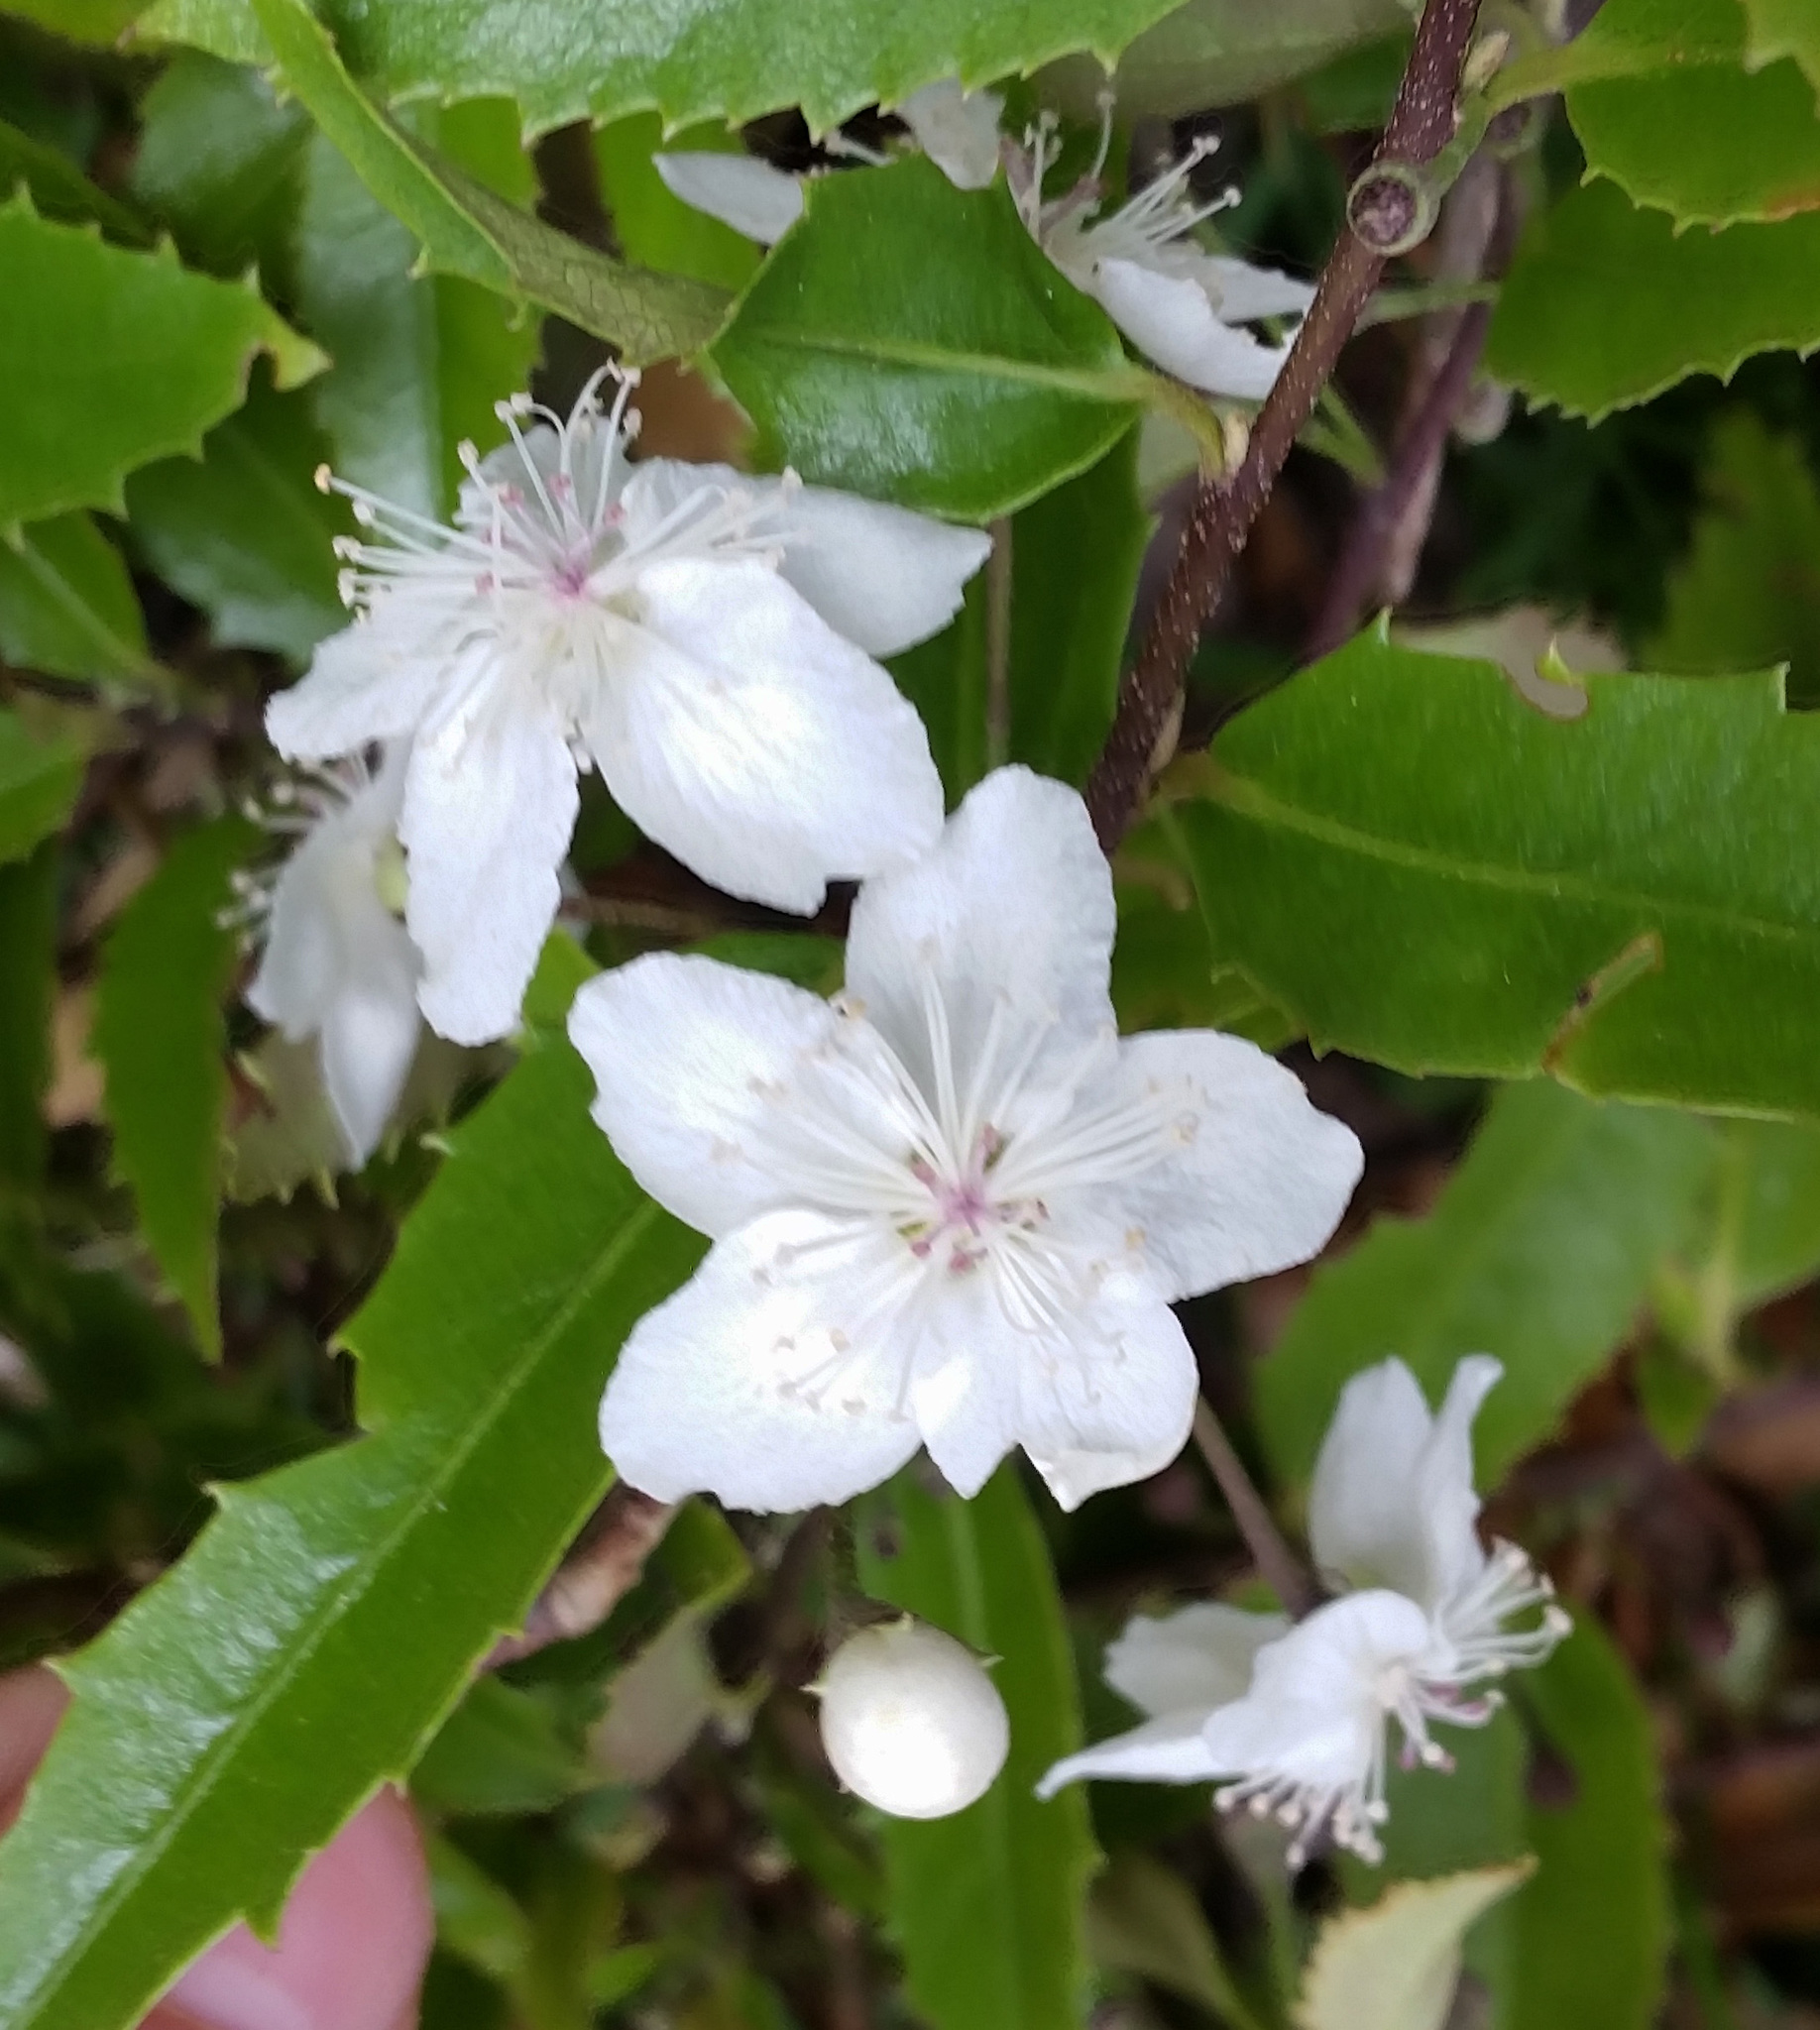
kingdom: Plantae
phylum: Tracheophyta
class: Magnoliopsida
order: Malvales
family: Malvaceae
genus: Hoheria
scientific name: Hoheria ovata
